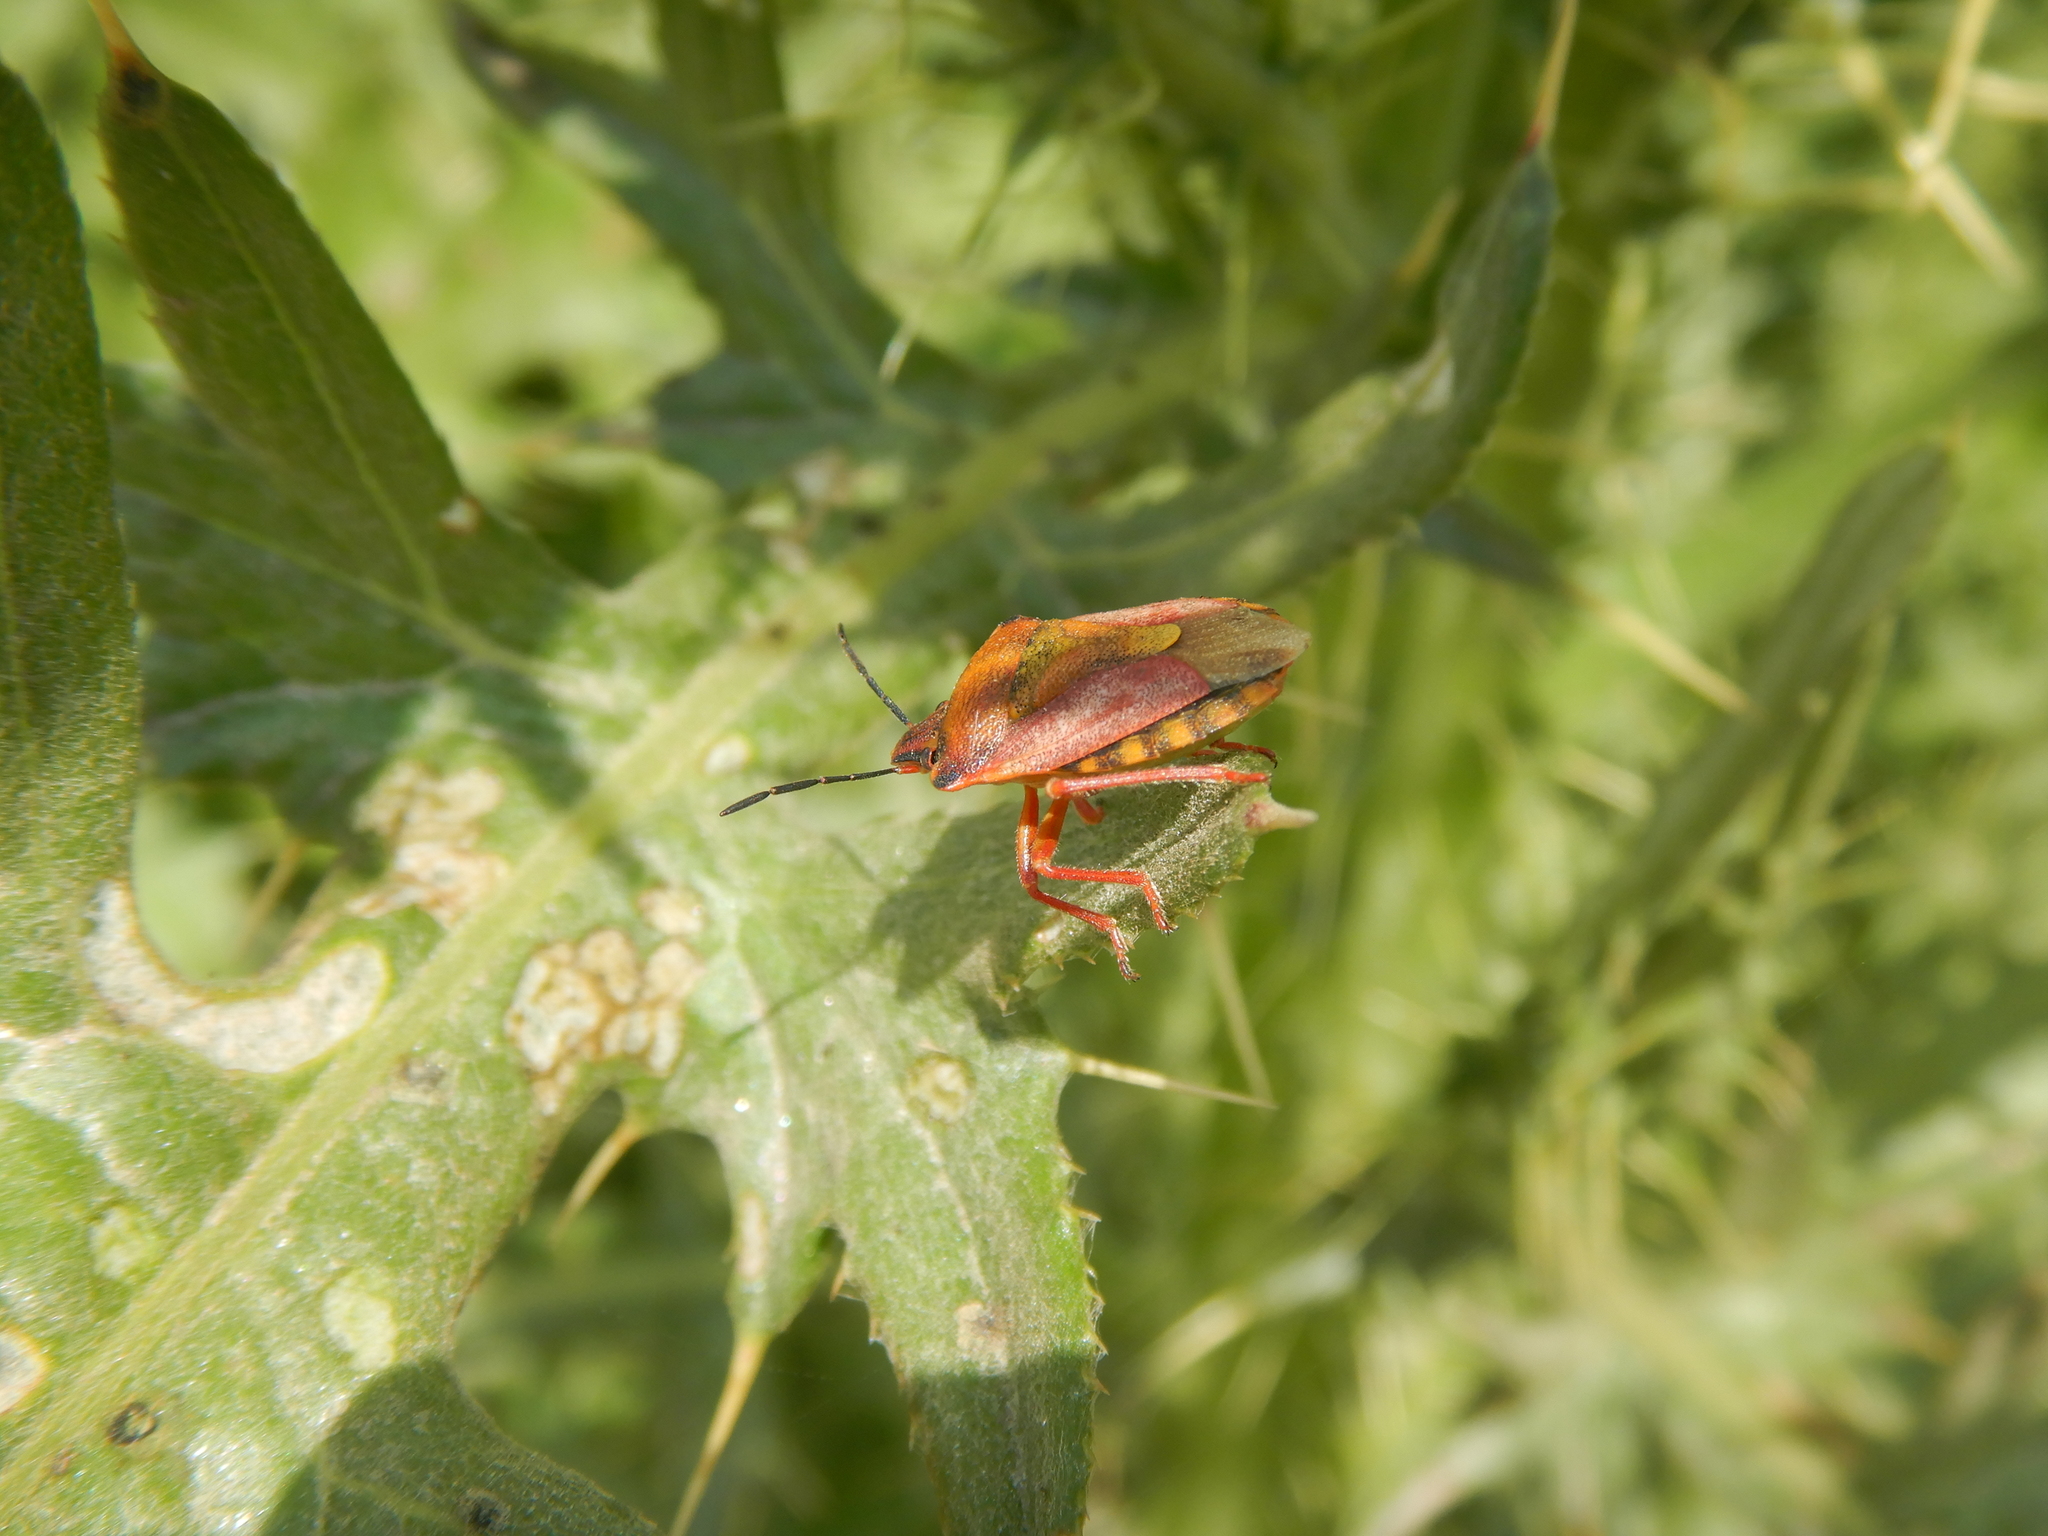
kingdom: Animalia
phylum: Arthropoda
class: Insecta
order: Hemiptera
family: Pentatomidae
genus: Carpocoris
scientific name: Carpocoris mediterraneus
